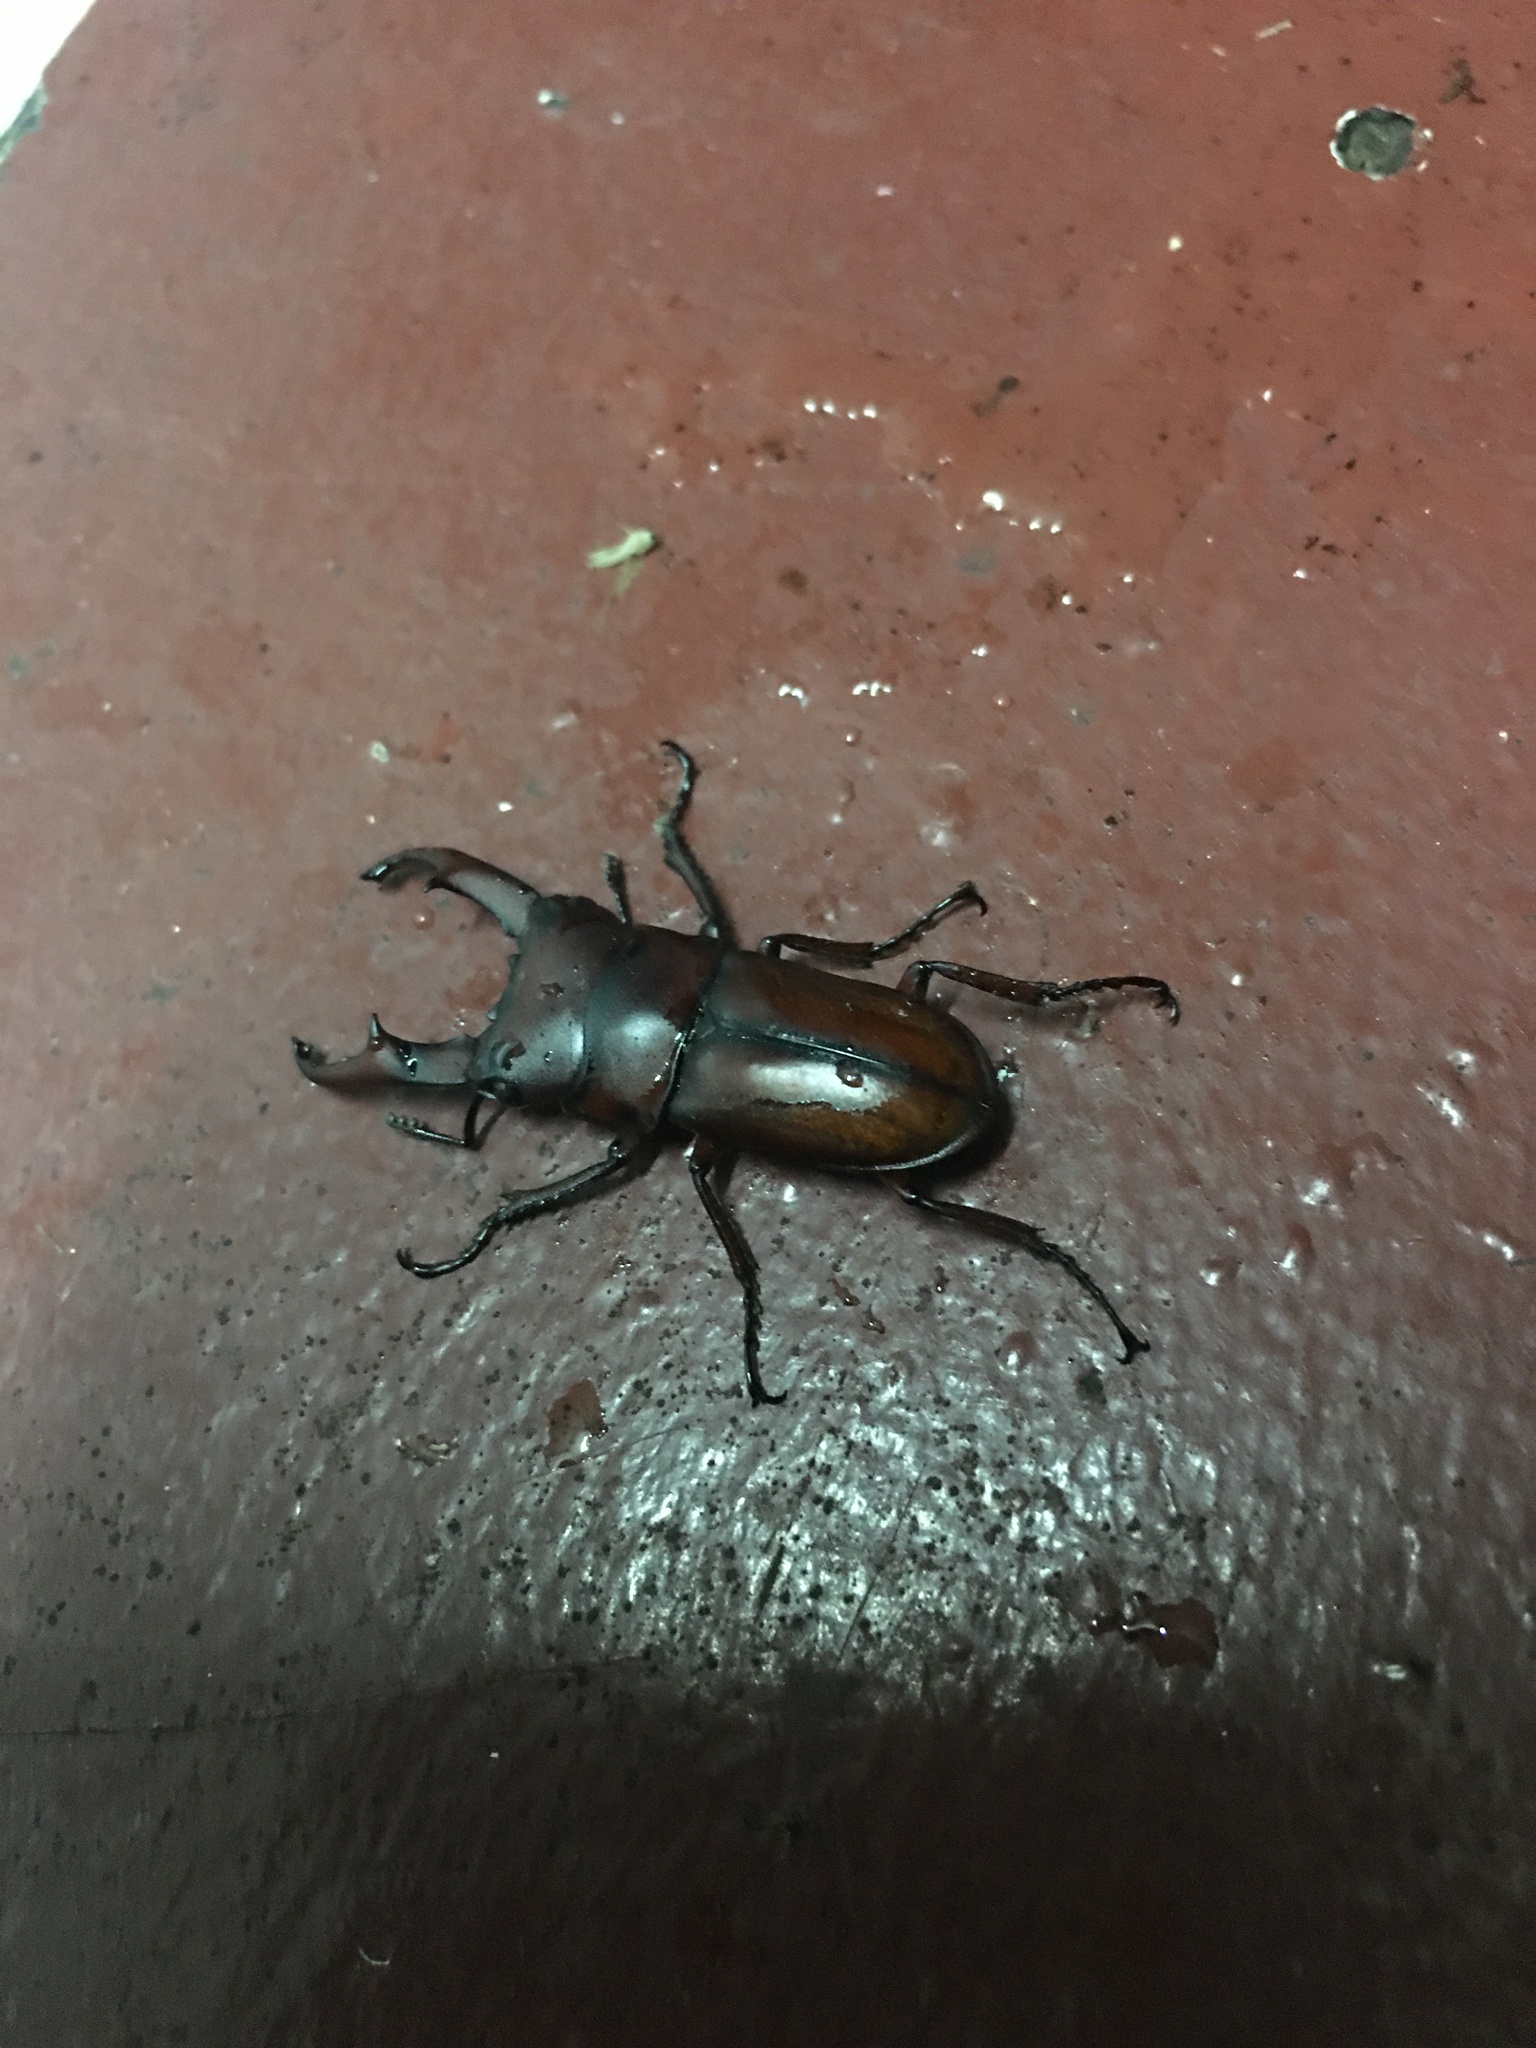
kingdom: Animalia
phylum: Arthropoda
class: Insecta
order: Coleoptera
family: Lucanidae
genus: Falcicornis
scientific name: Falcicornis axisopsis
